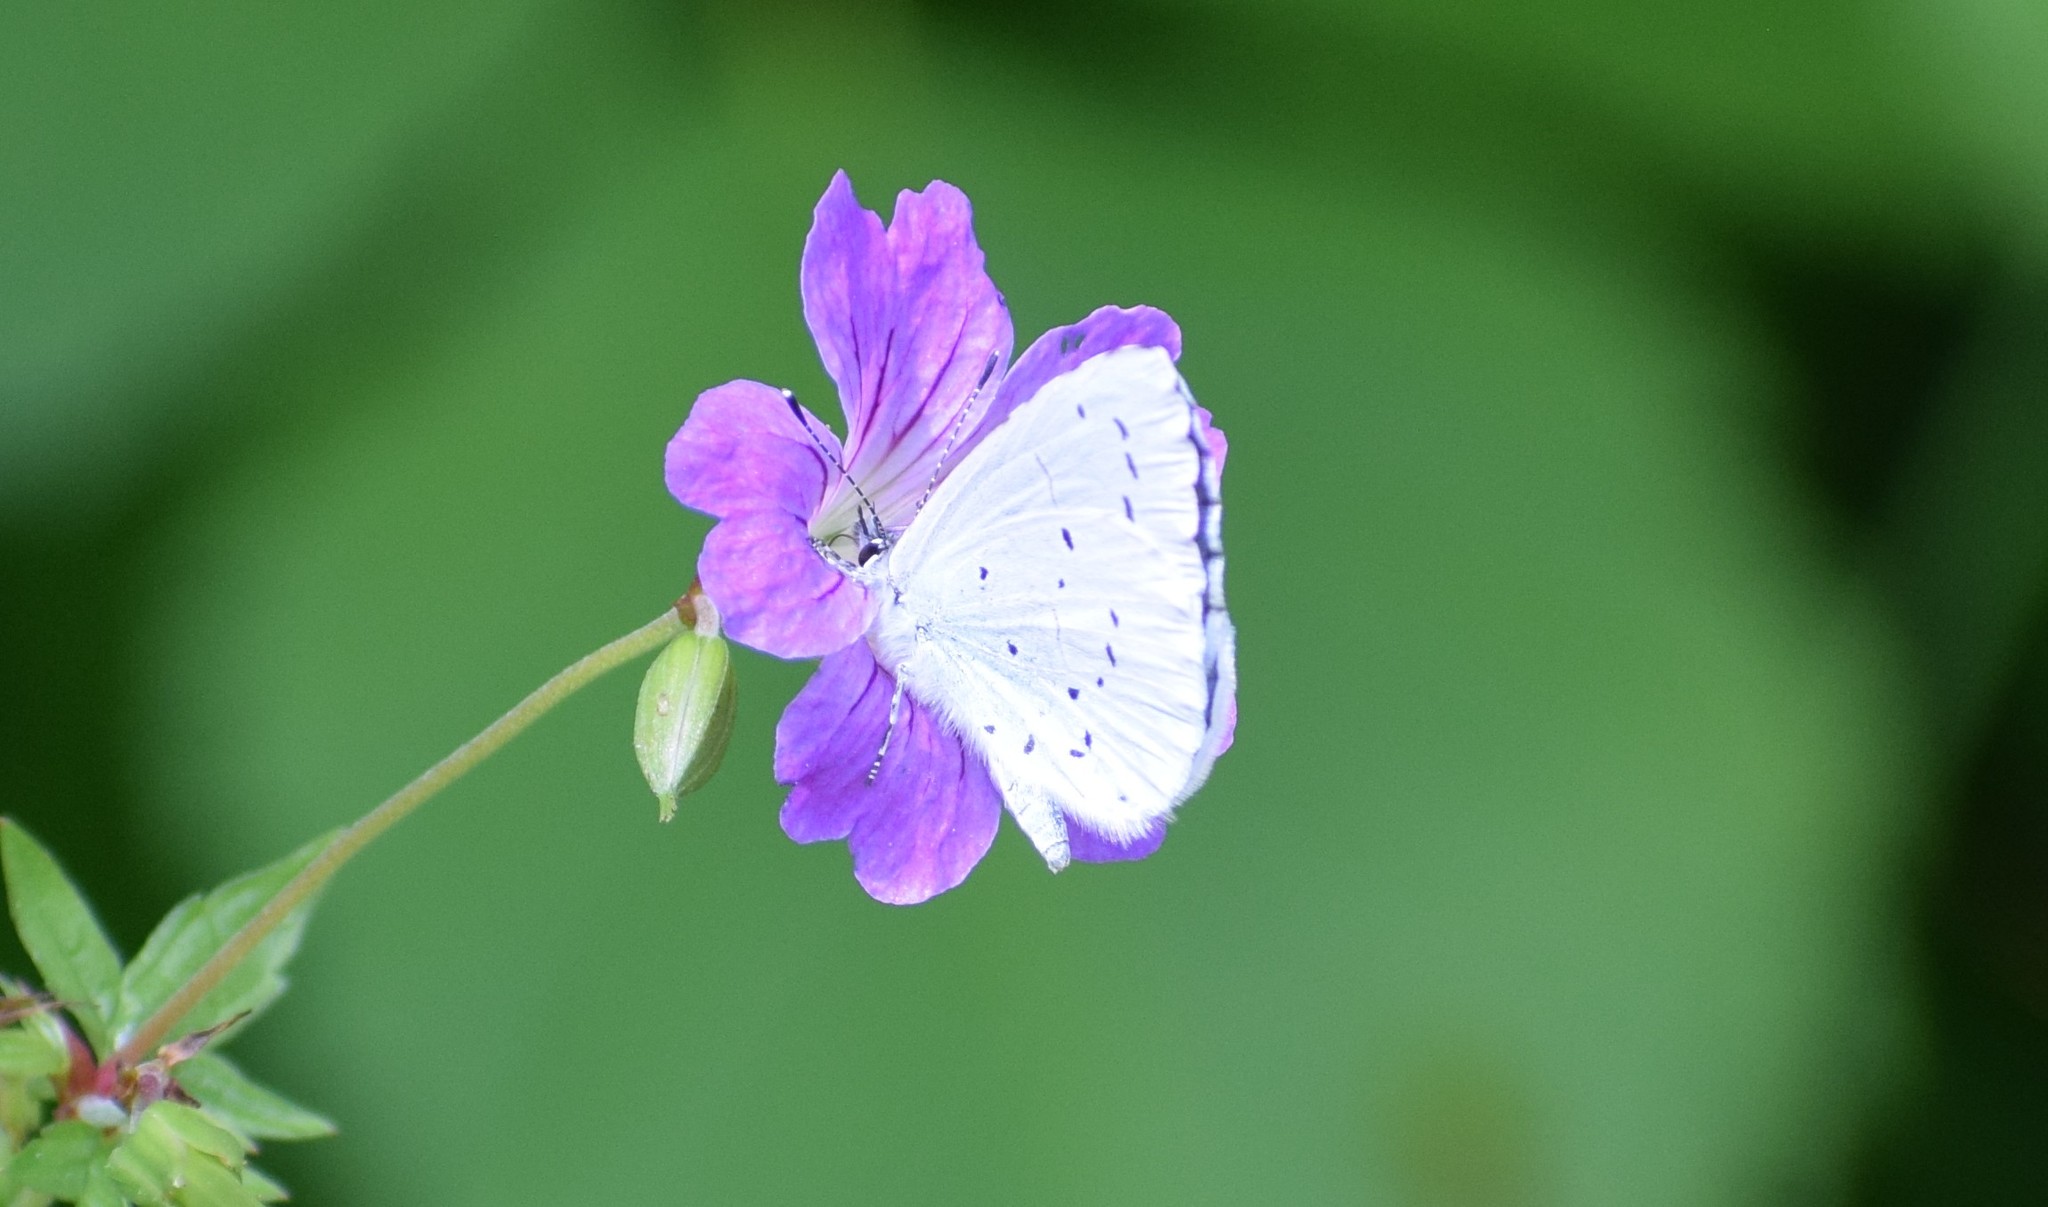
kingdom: Animalia
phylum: Arthropoda
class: Insecta
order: Lepidoptera
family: Lycaenidae
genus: Celastrina
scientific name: Celastrina argiolus
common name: Holly blue
